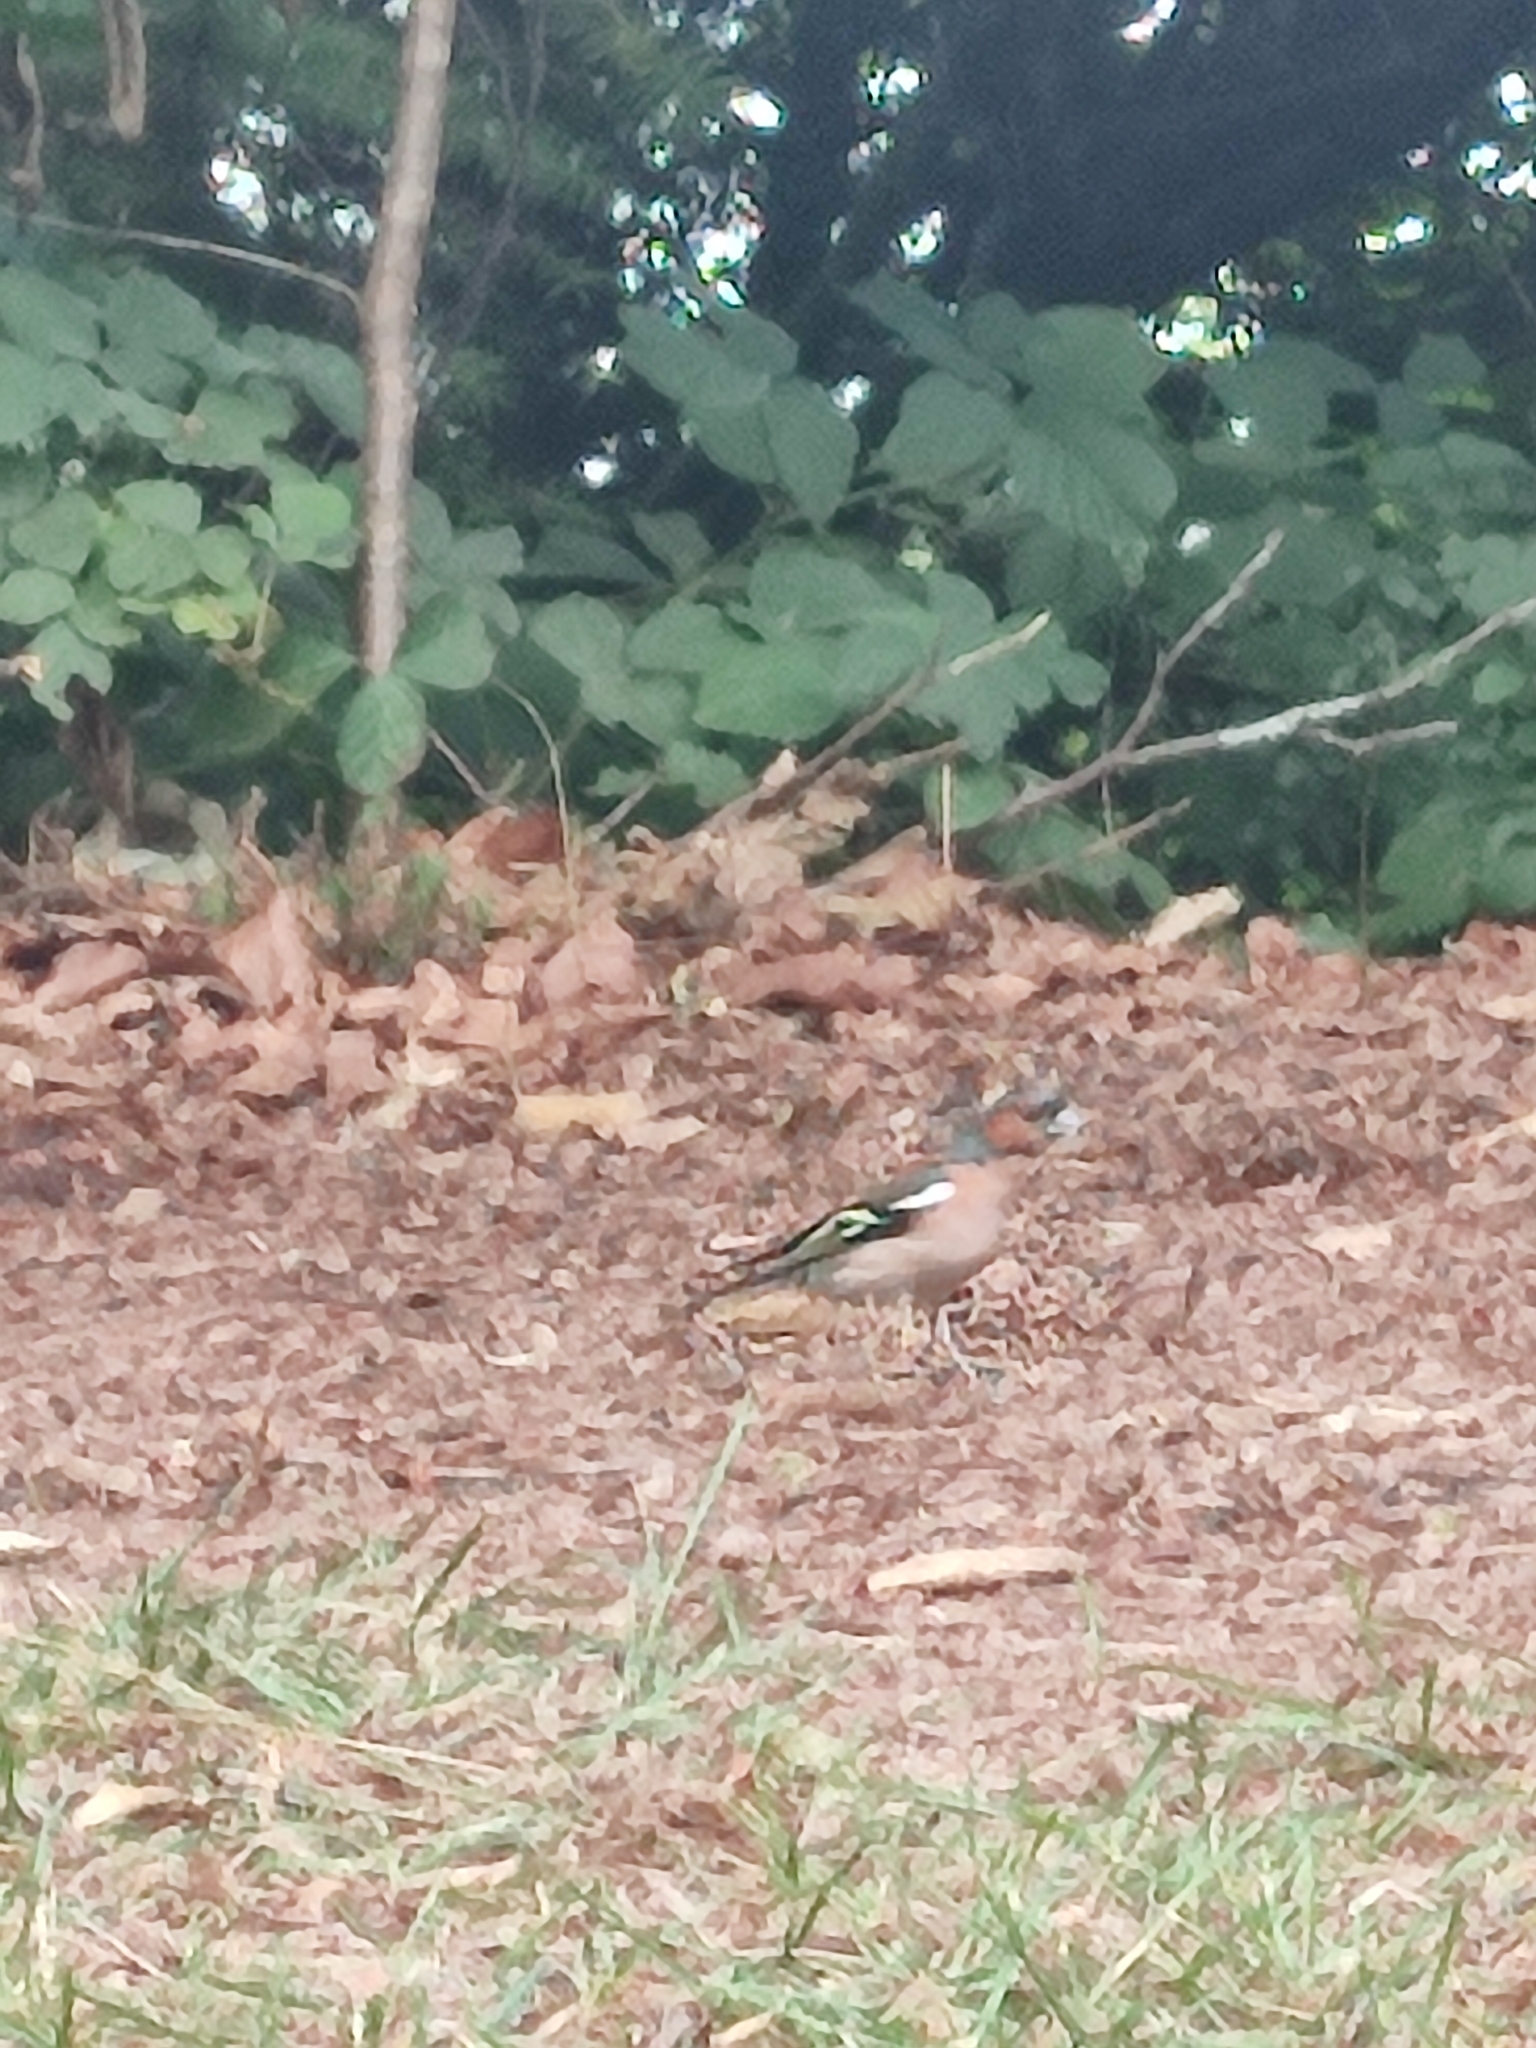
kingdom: Animalia
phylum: Chordata
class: Aves
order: Passeriformes
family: Fringillidae
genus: Fringilla
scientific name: Fringilla coelebs
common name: Common chaffinch
